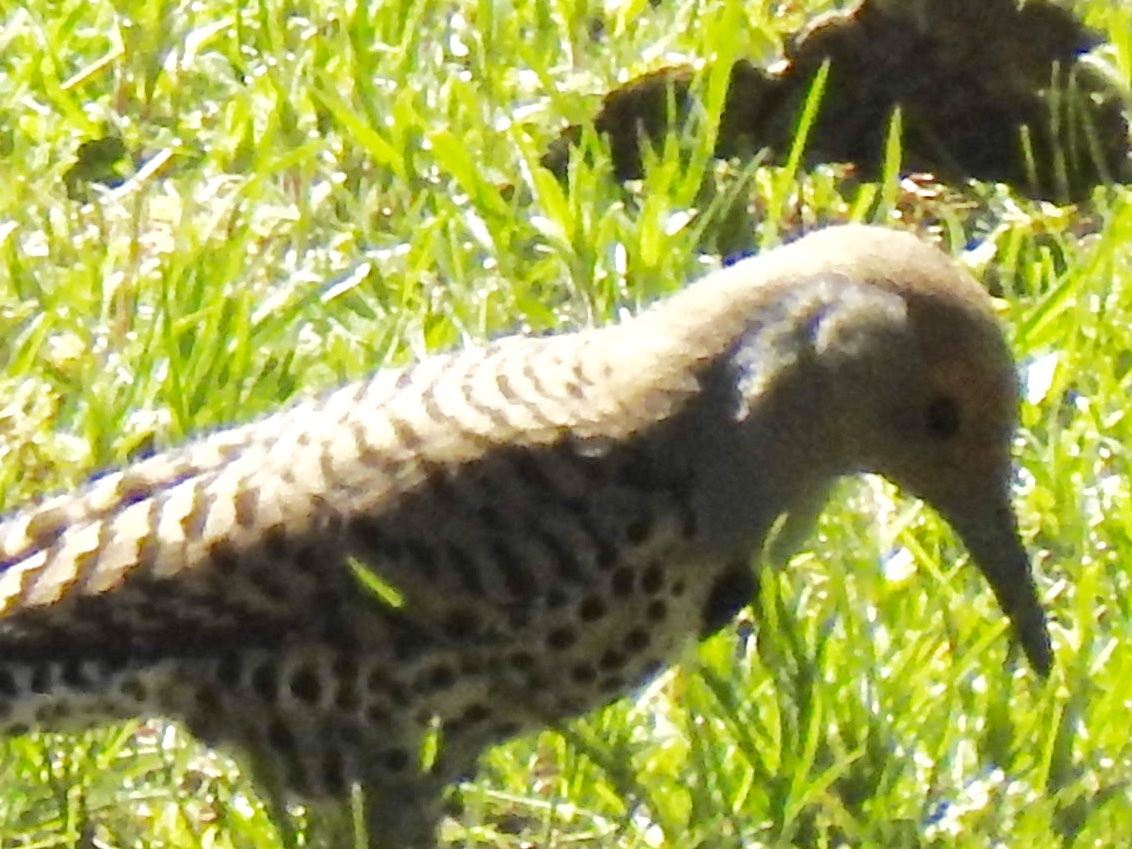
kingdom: Animalia
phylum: Chordata
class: Aves
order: Piciformes
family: Picidae
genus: Colaptes
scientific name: Colaptes auratus
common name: Northern flicker
